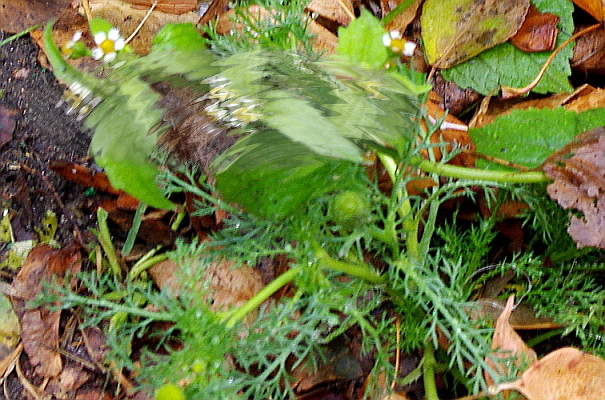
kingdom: Plantae
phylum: Tracheophyta
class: Magnoliopsida
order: Asterales
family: Asteraceae
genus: Matricaria
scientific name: Matricaria discoidea
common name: Disc mayweed
